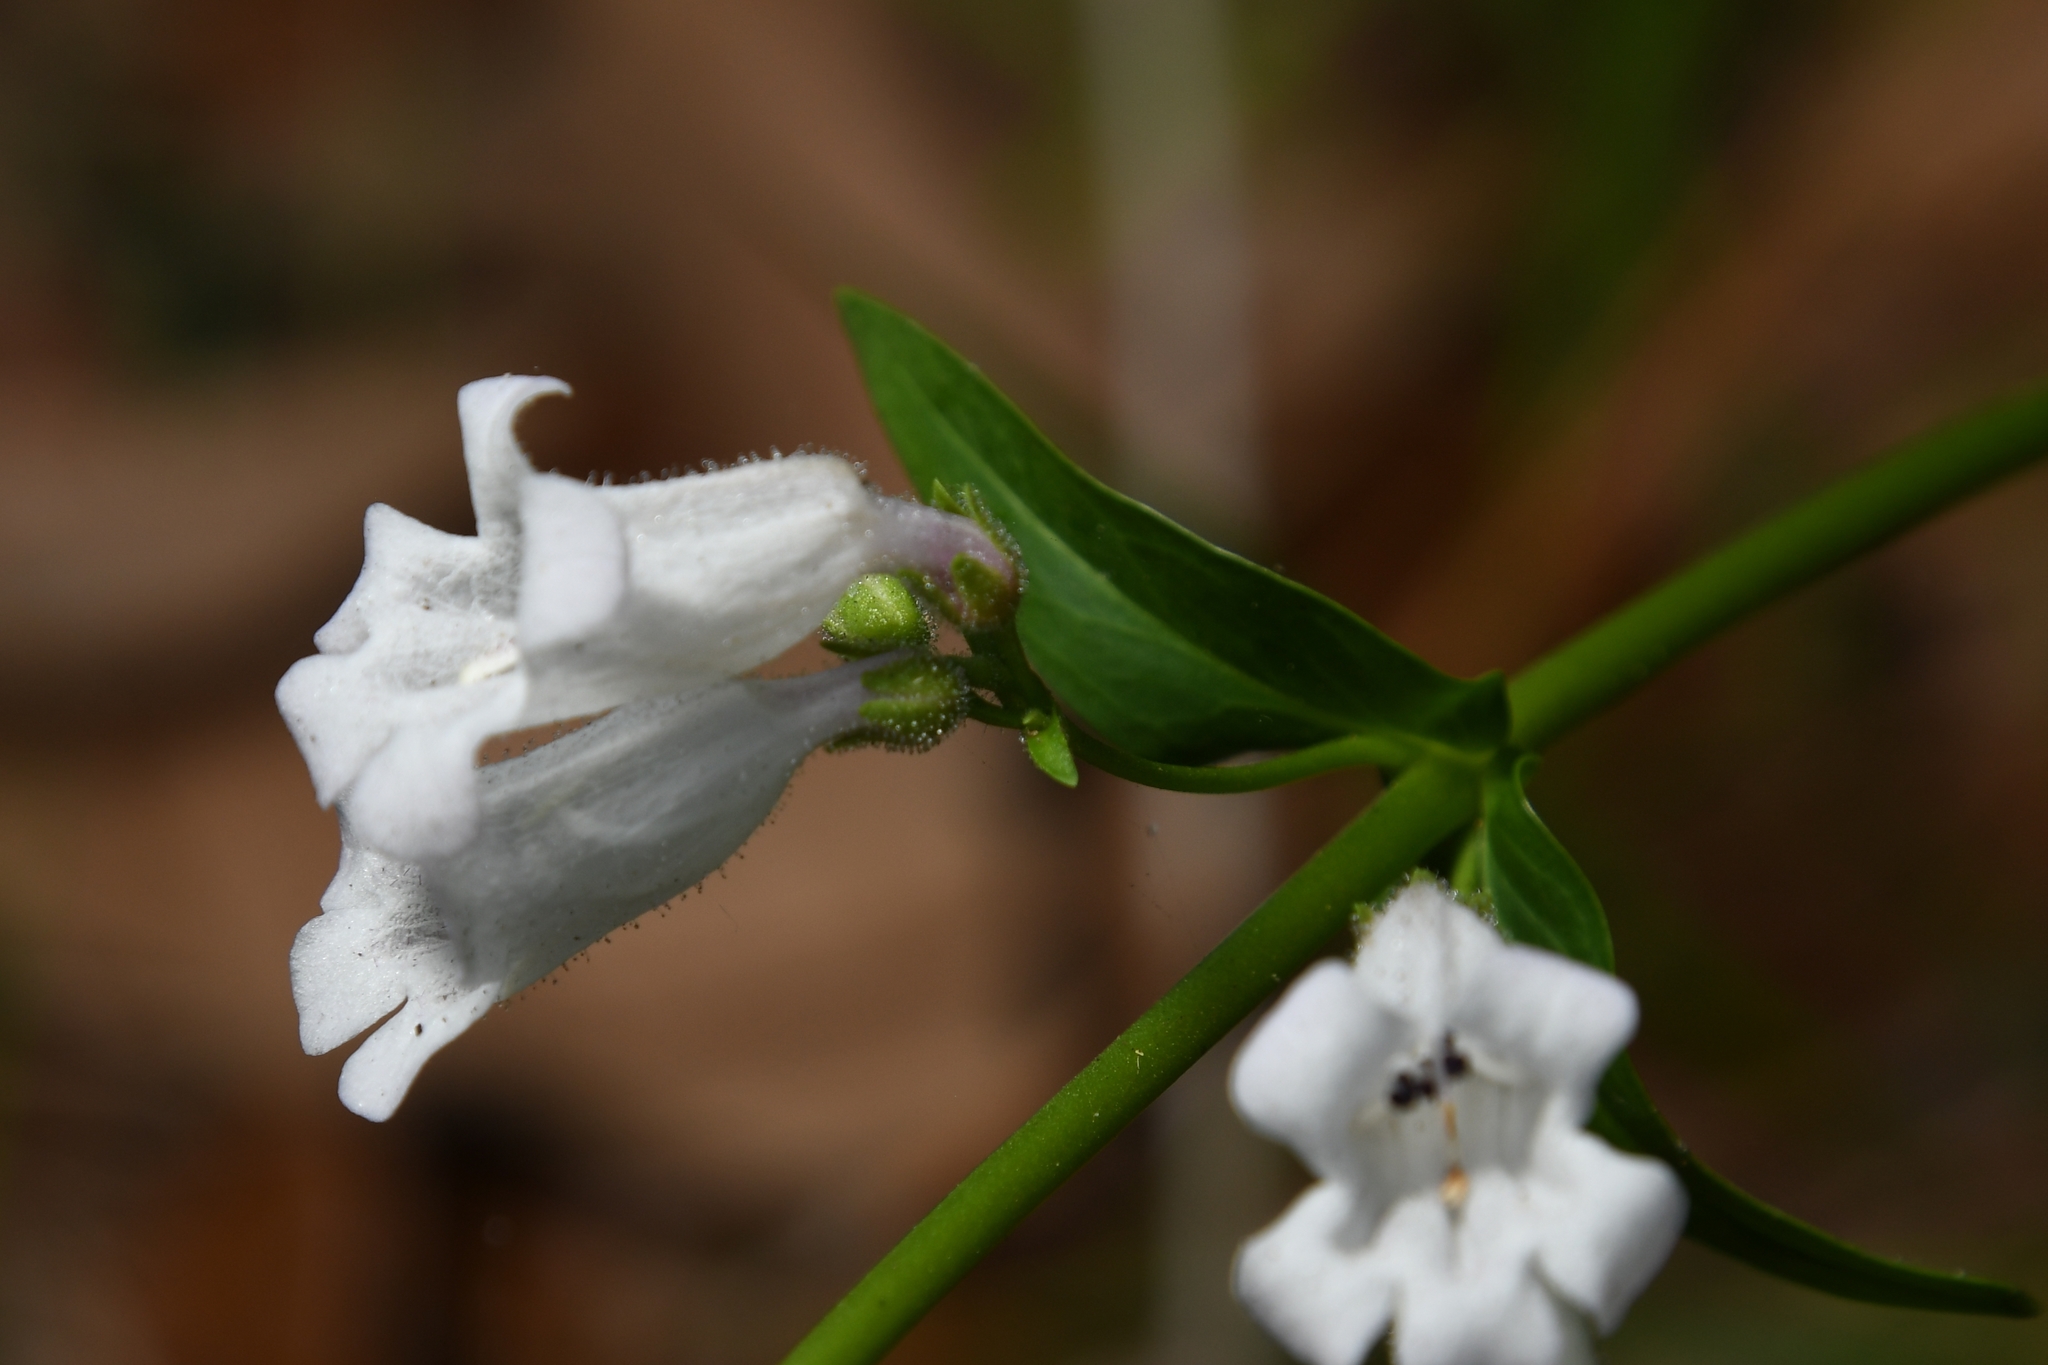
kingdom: Plantae
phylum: Tracheophyta
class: Magnoliopsida
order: Lamiales
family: Plantaginaceae
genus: Penstemon
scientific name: Penstemon multiflorus
